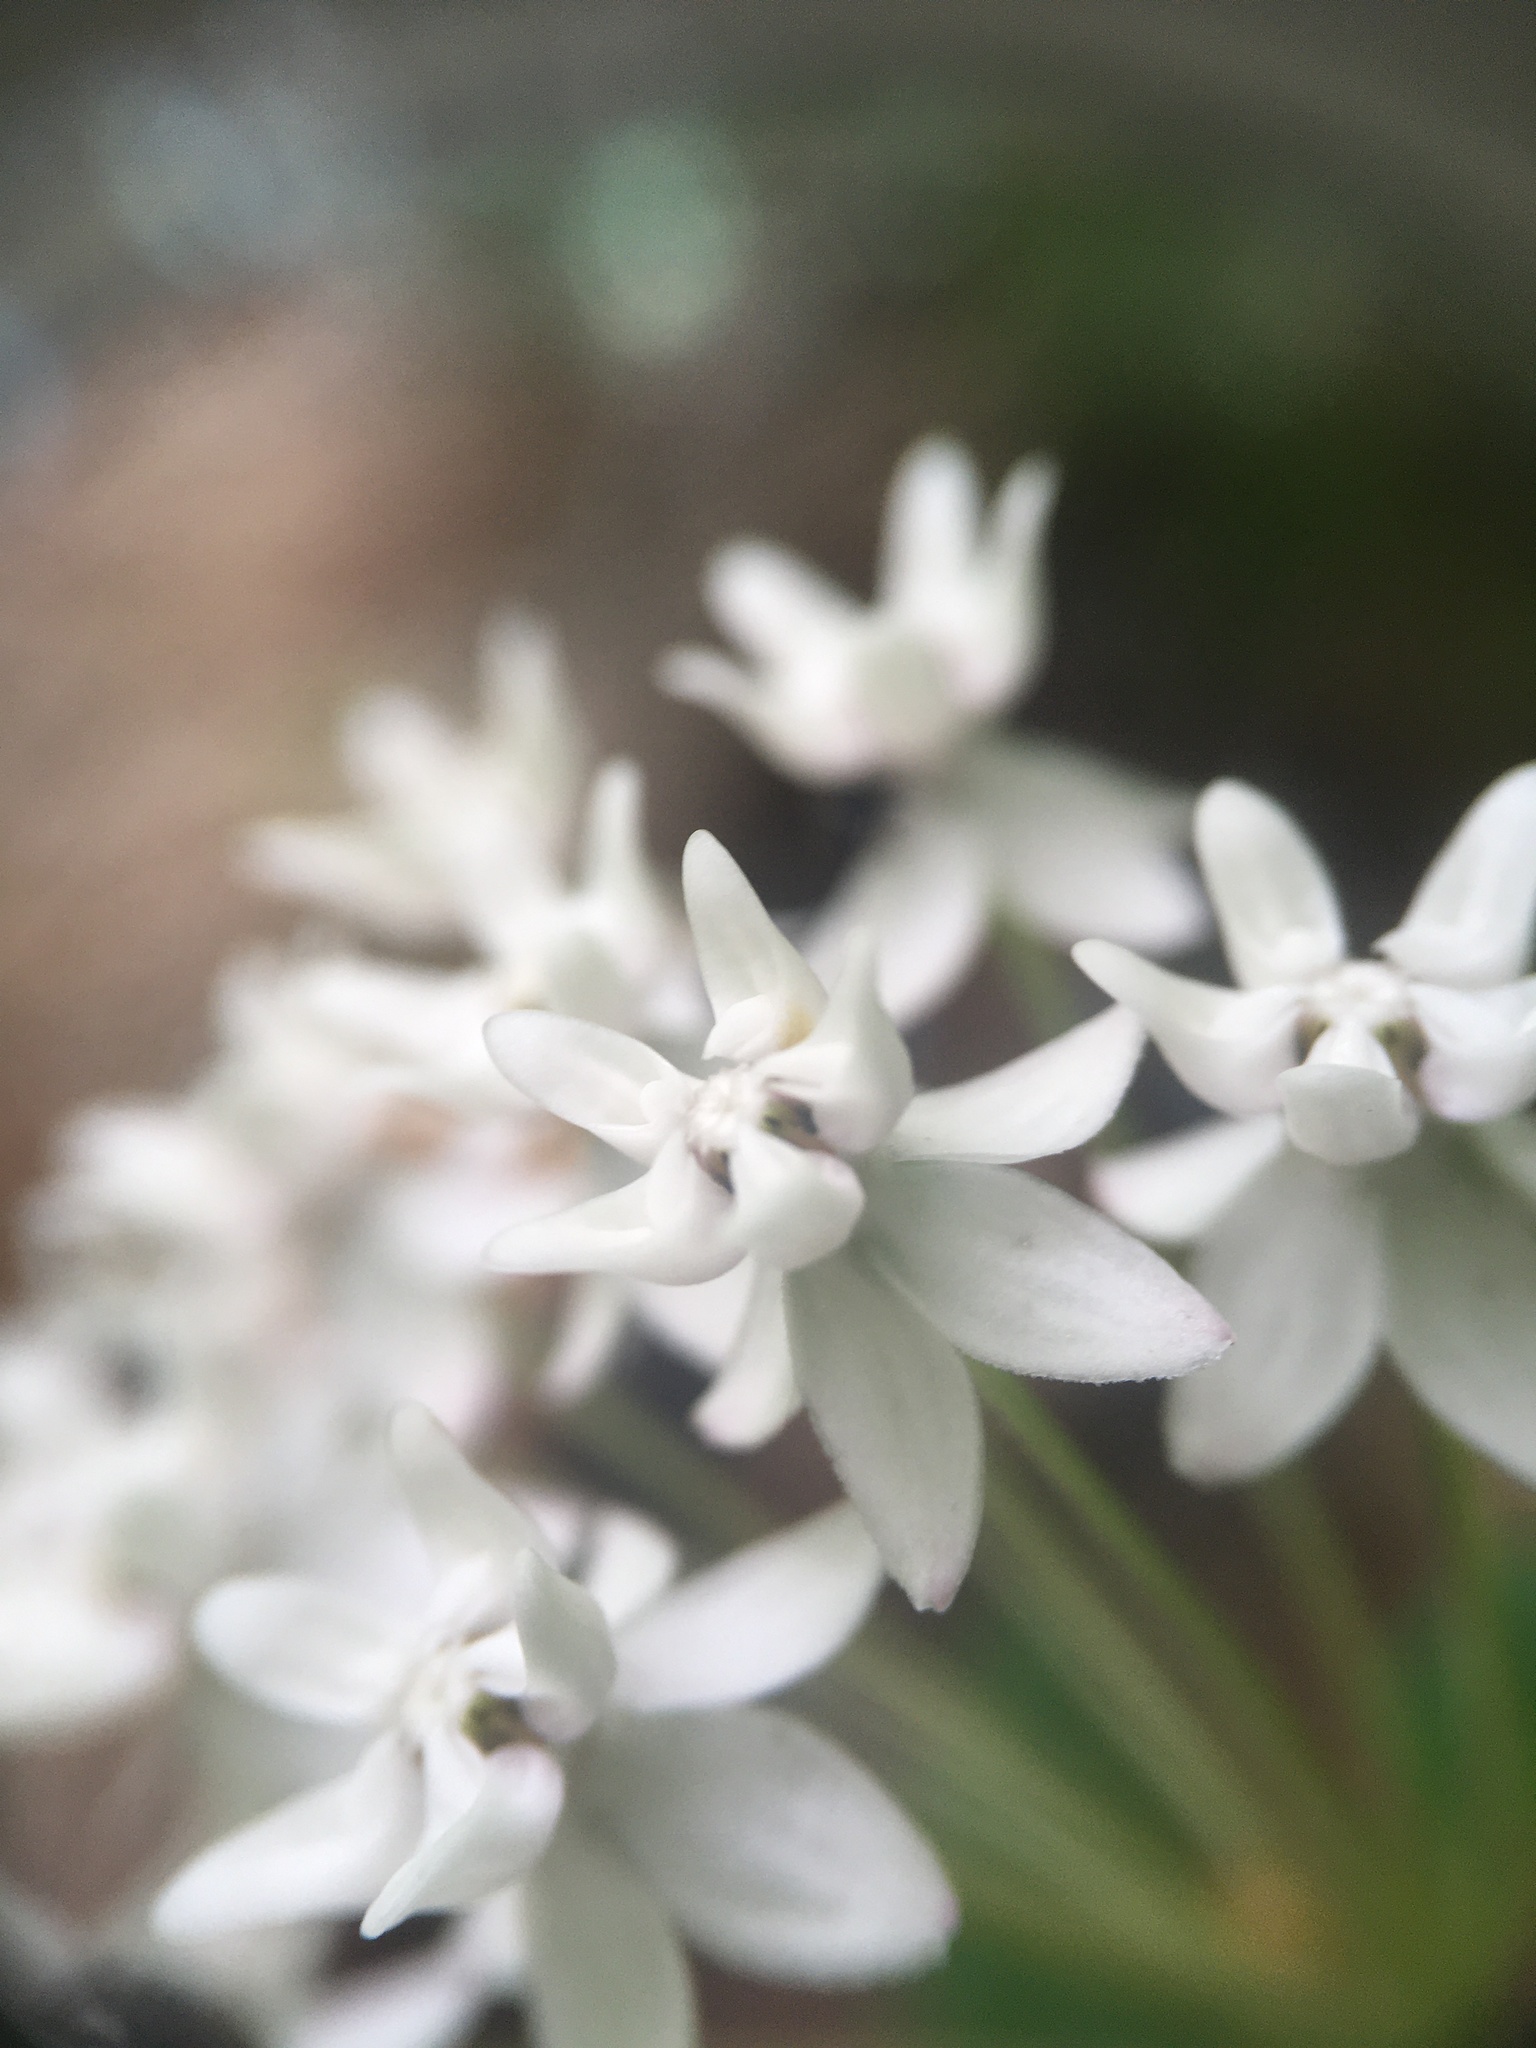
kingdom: Plantae
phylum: Tracheophyta
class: Magnoliopsida
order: Gentianales
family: Apocynaceae
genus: Asclepias
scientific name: Asclepias quadrifolia
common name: Whorled milkweed
